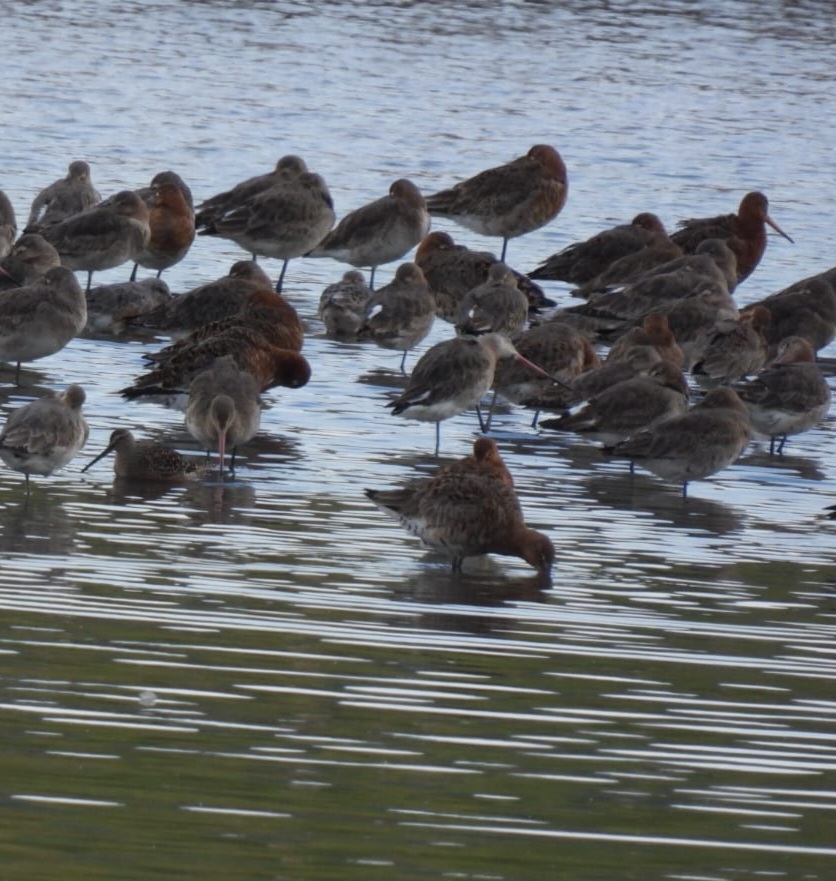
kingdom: Animalia
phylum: Chordata
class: Aves
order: Charadriiformes
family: Scolopacidae
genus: Limosa
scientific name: Limosa limosa
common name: Black-tailed godwit
